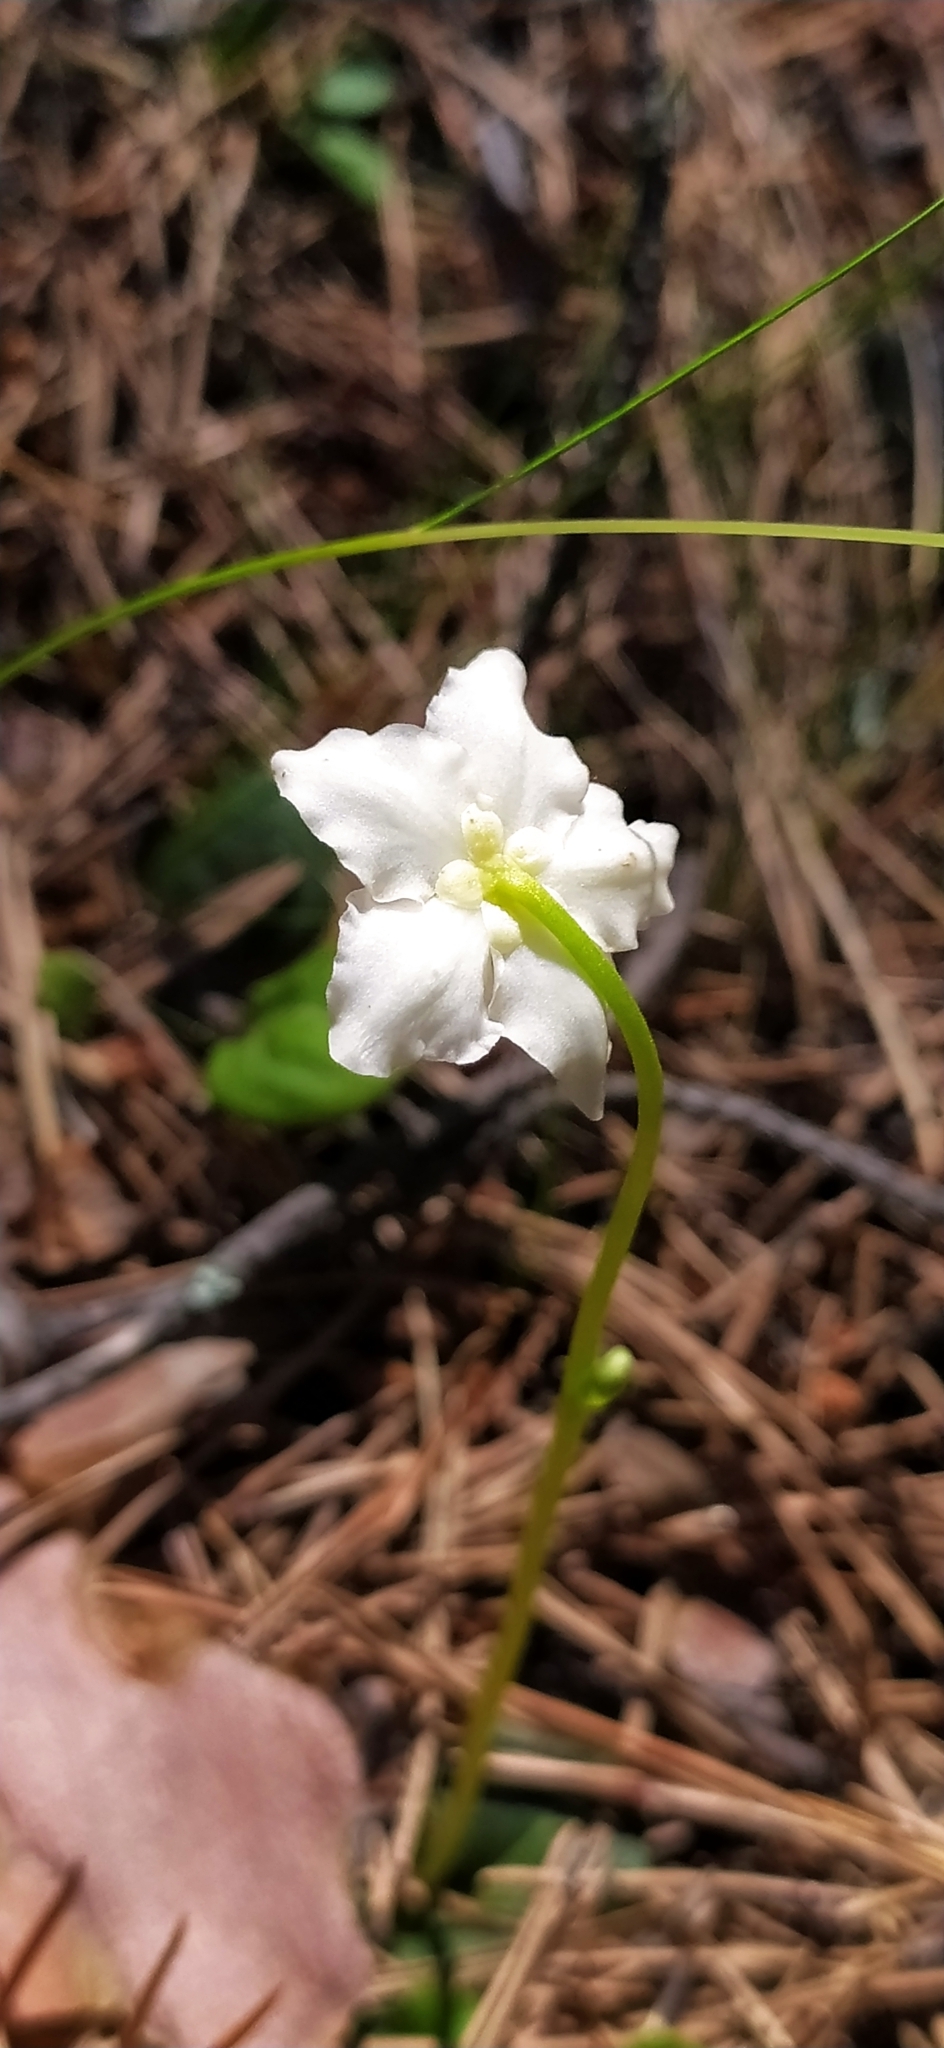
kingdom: Plantae
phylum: Tracheophyta
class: Magnoliopsida
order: Ericales
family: Ericaceae
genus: Moneses
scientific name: Moneses uniflora
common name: One-flowered wintergreen
